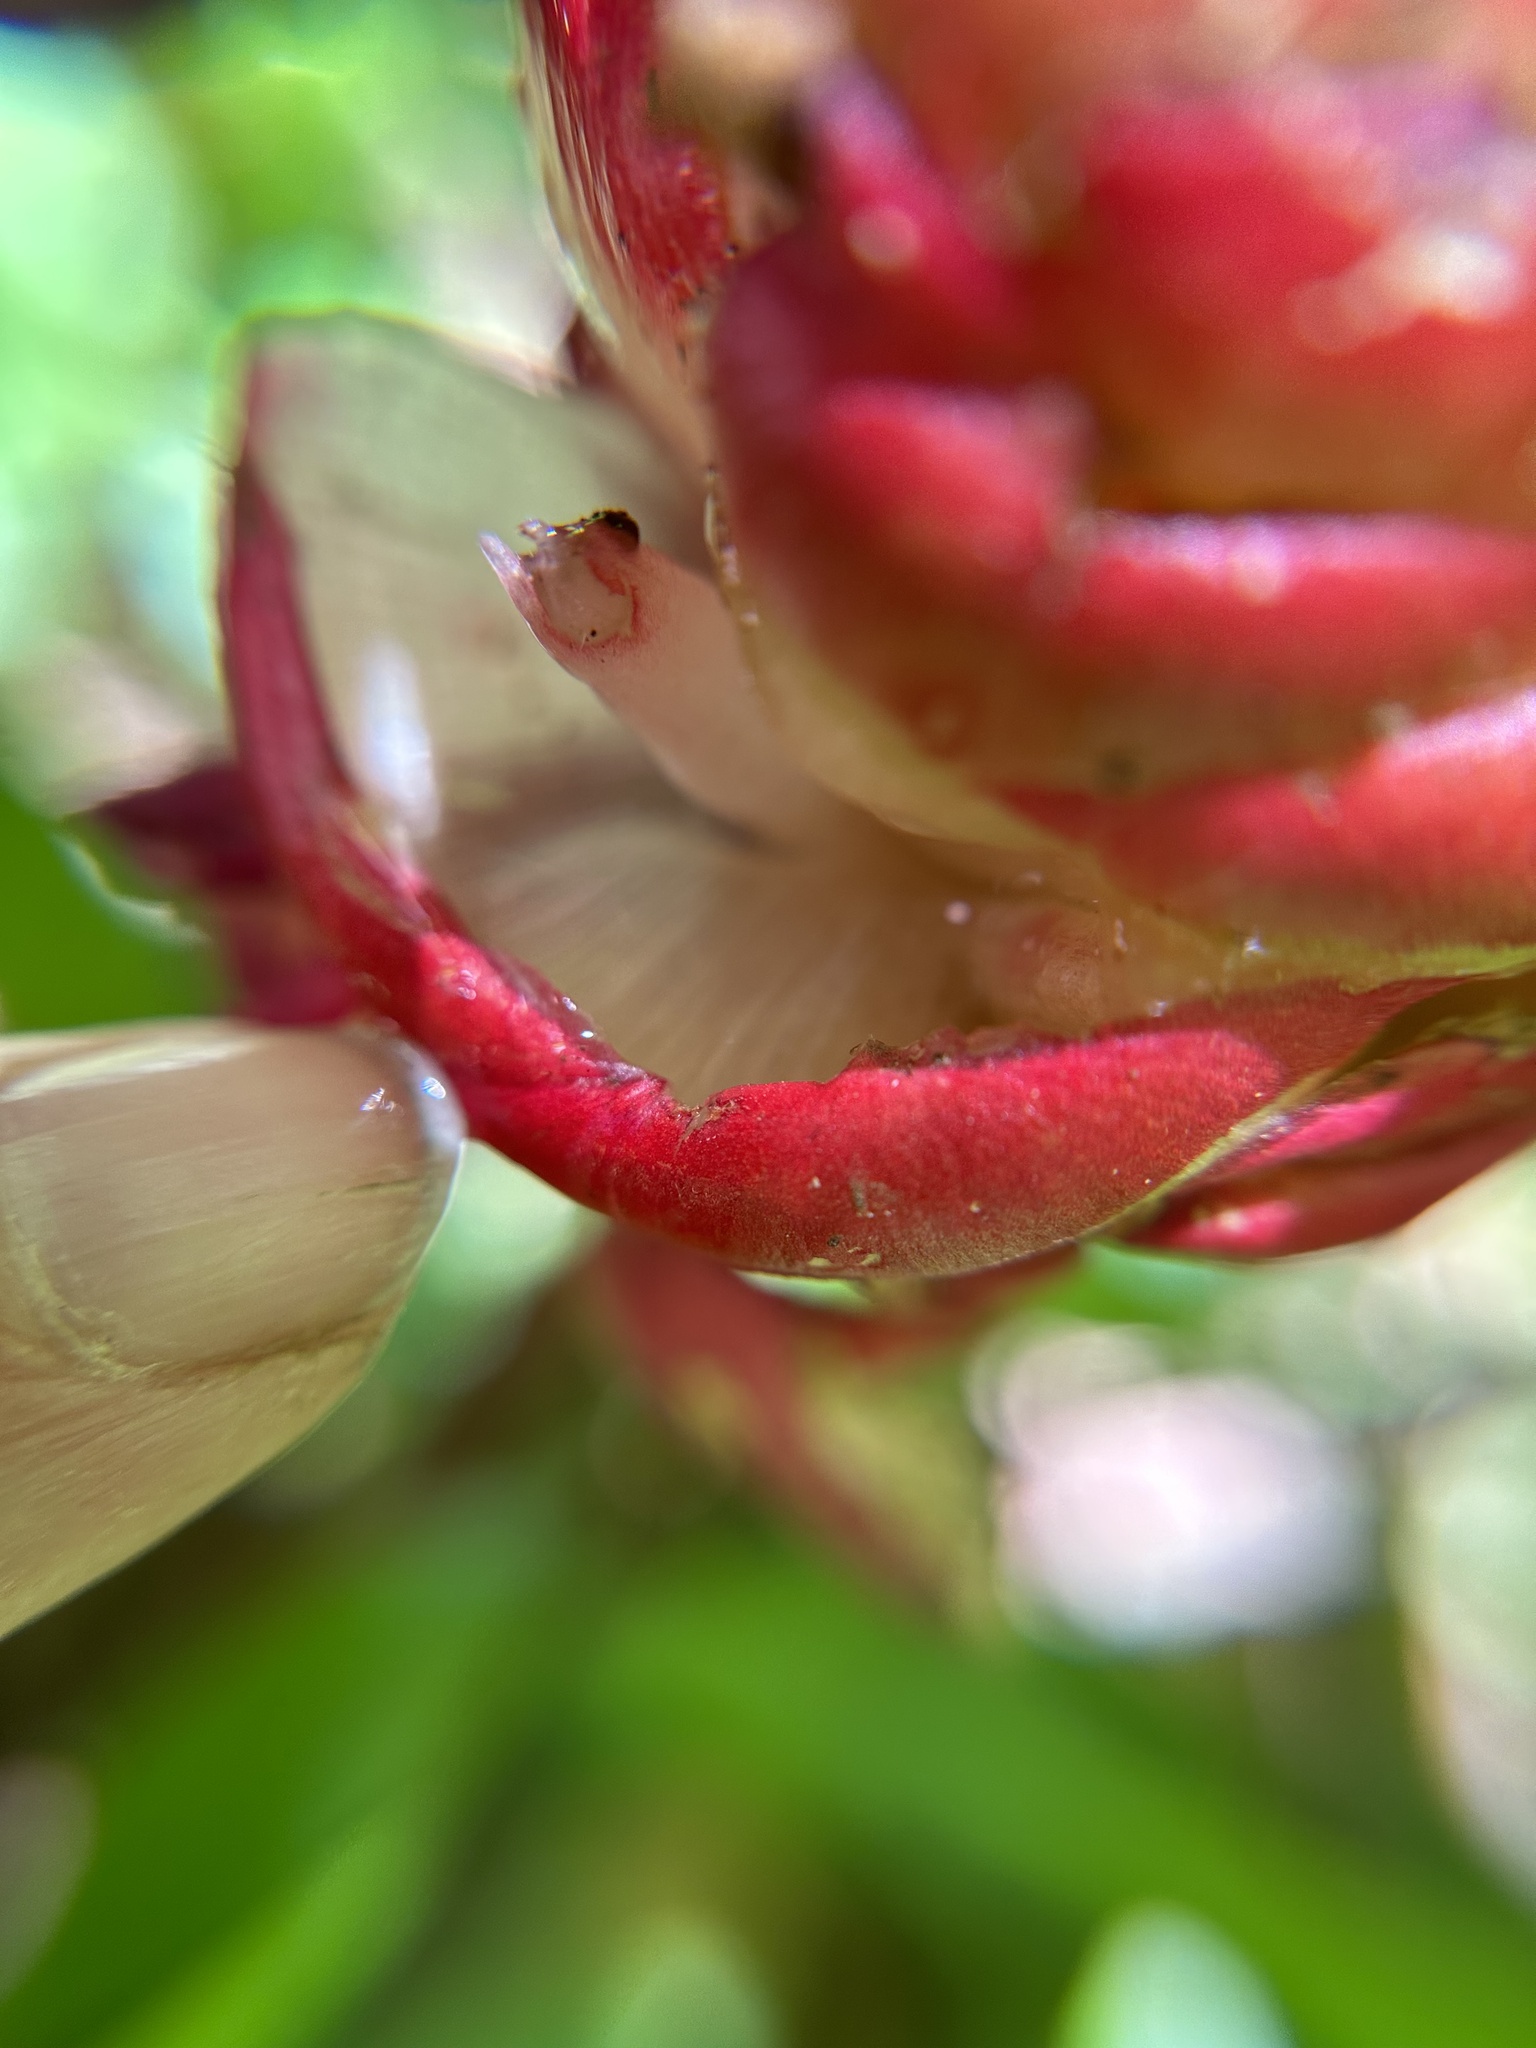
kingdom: Plantae
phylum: Tracheophyta
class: Liliopsida
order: Zingiberales
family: Zingiberaceae
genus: Zingiber
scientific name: Zingiber zerumbet
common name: Bitter ginger
